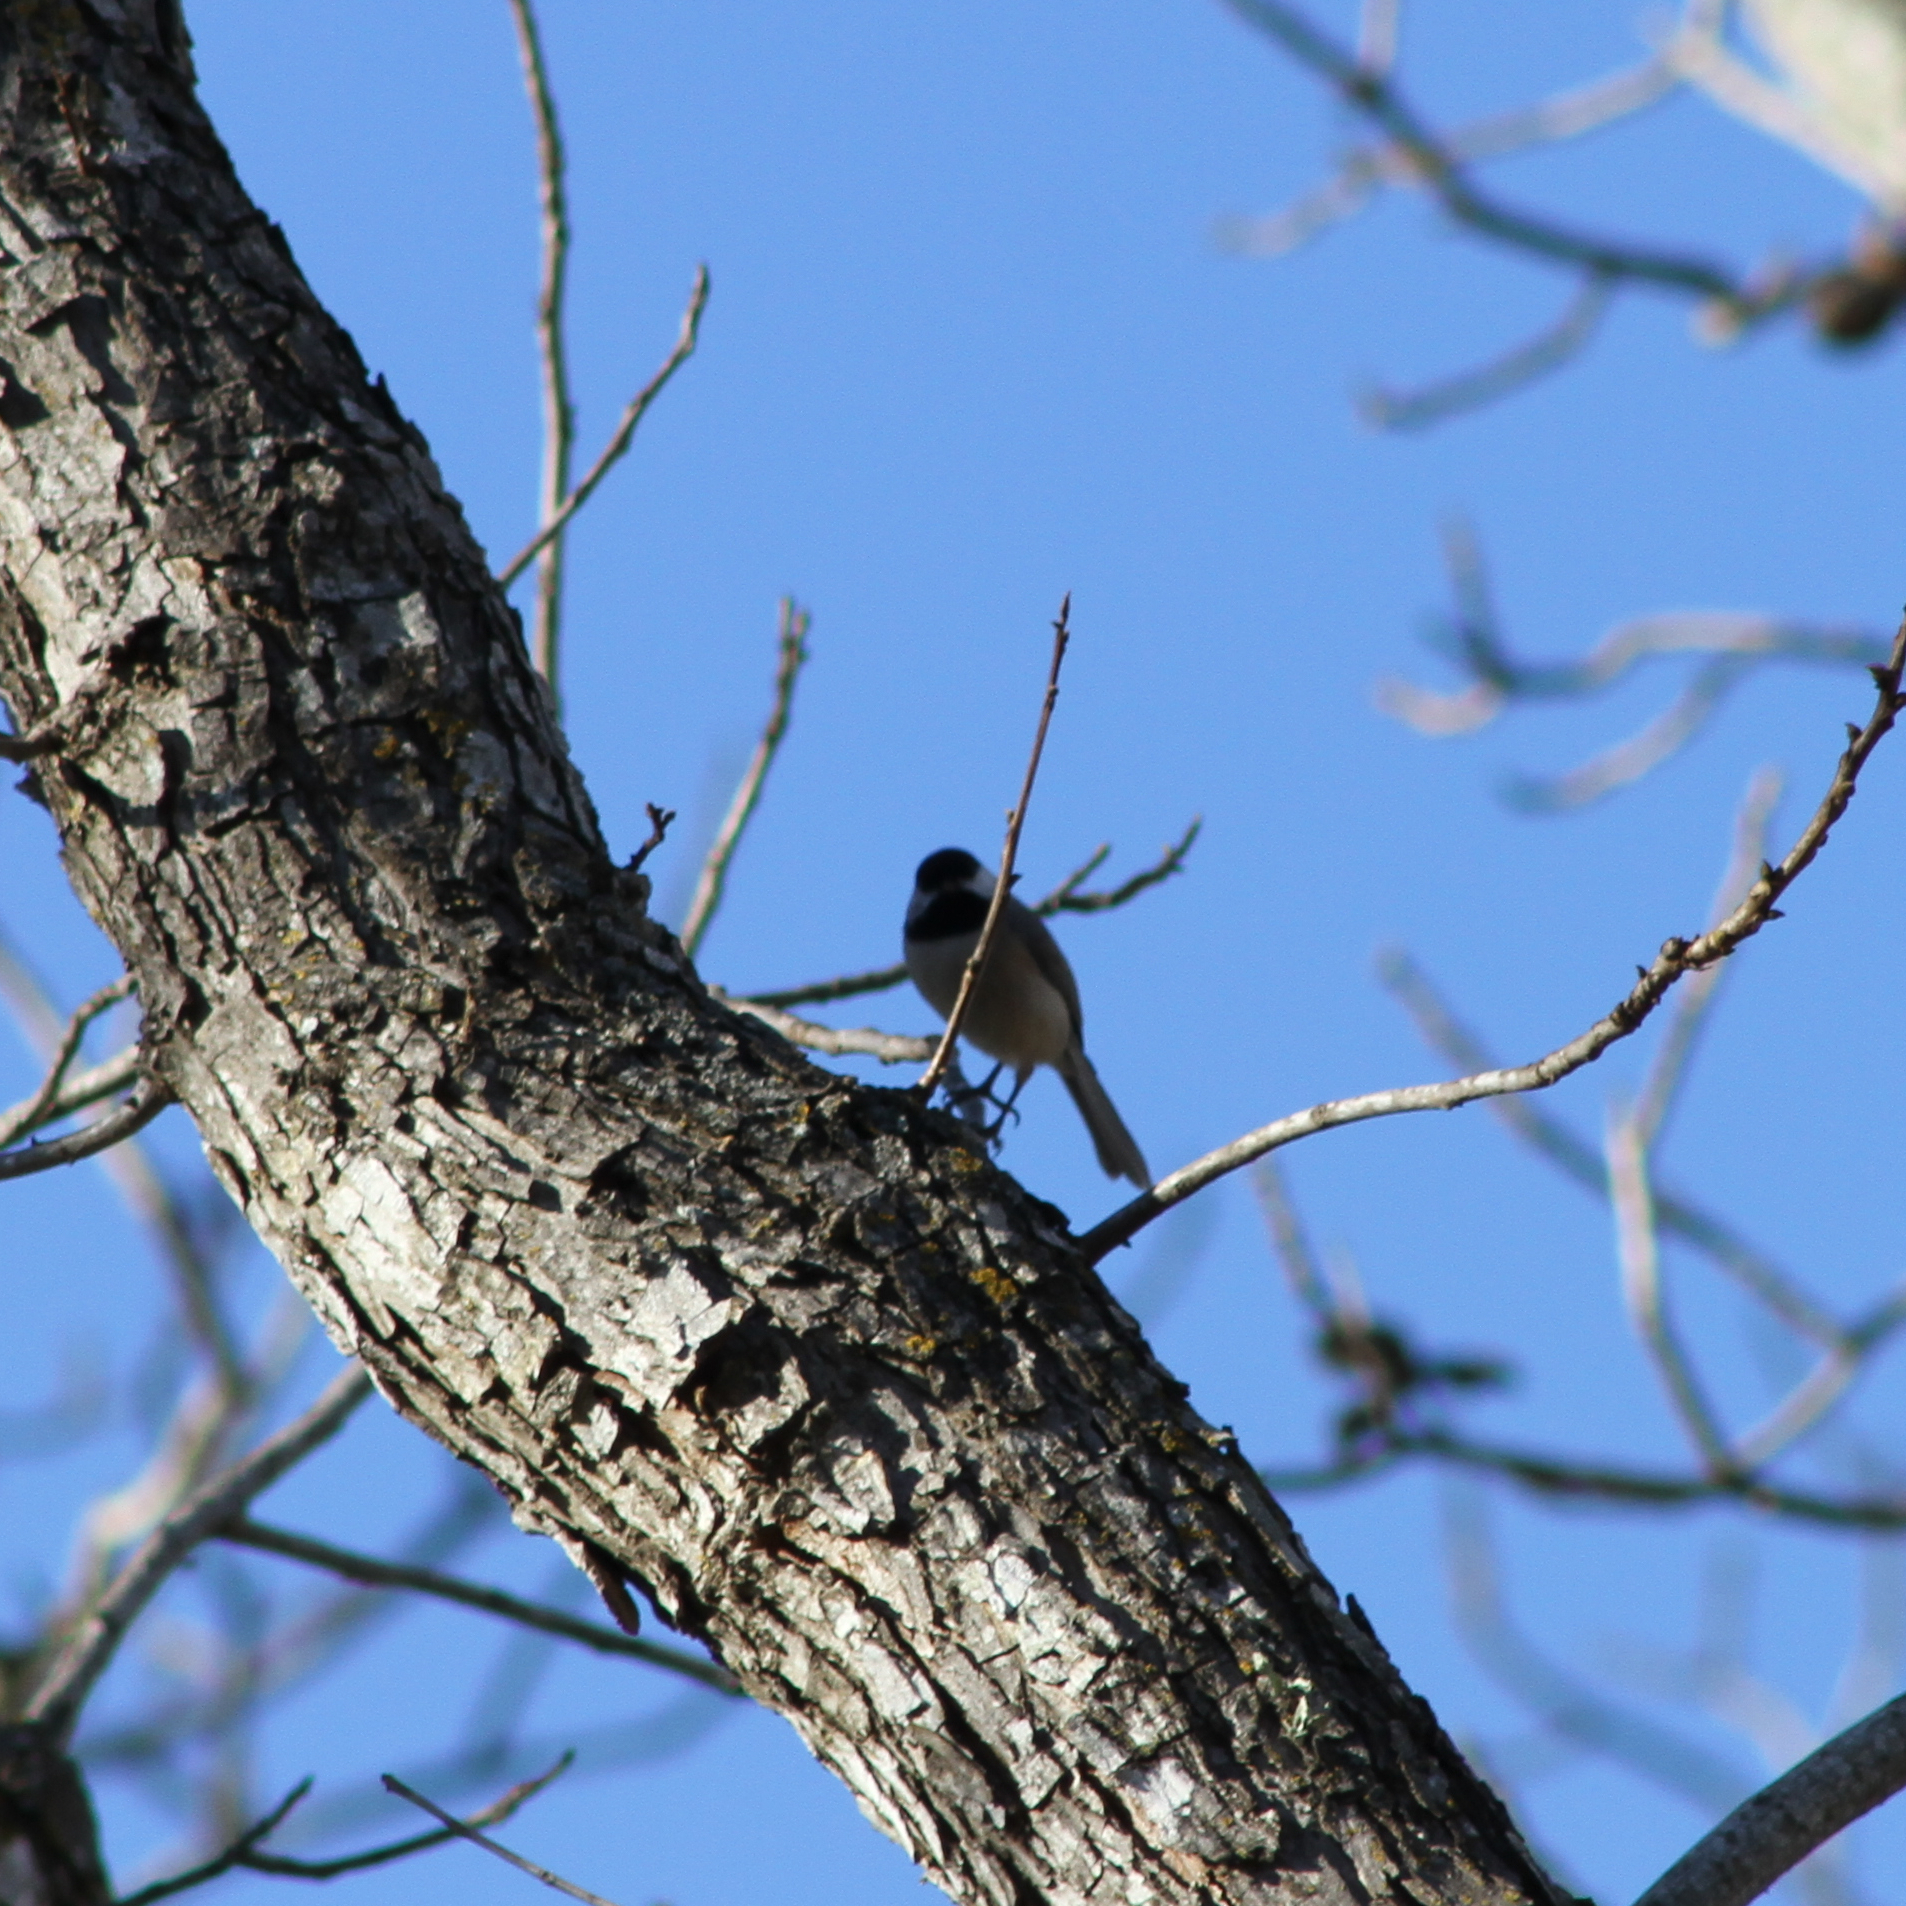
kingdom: Animalia
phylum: Chordata
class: Aves
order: Passeriformes
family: Paridae
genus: Poecile
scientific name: Poecile carolinensis
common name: Carolina chickadee
